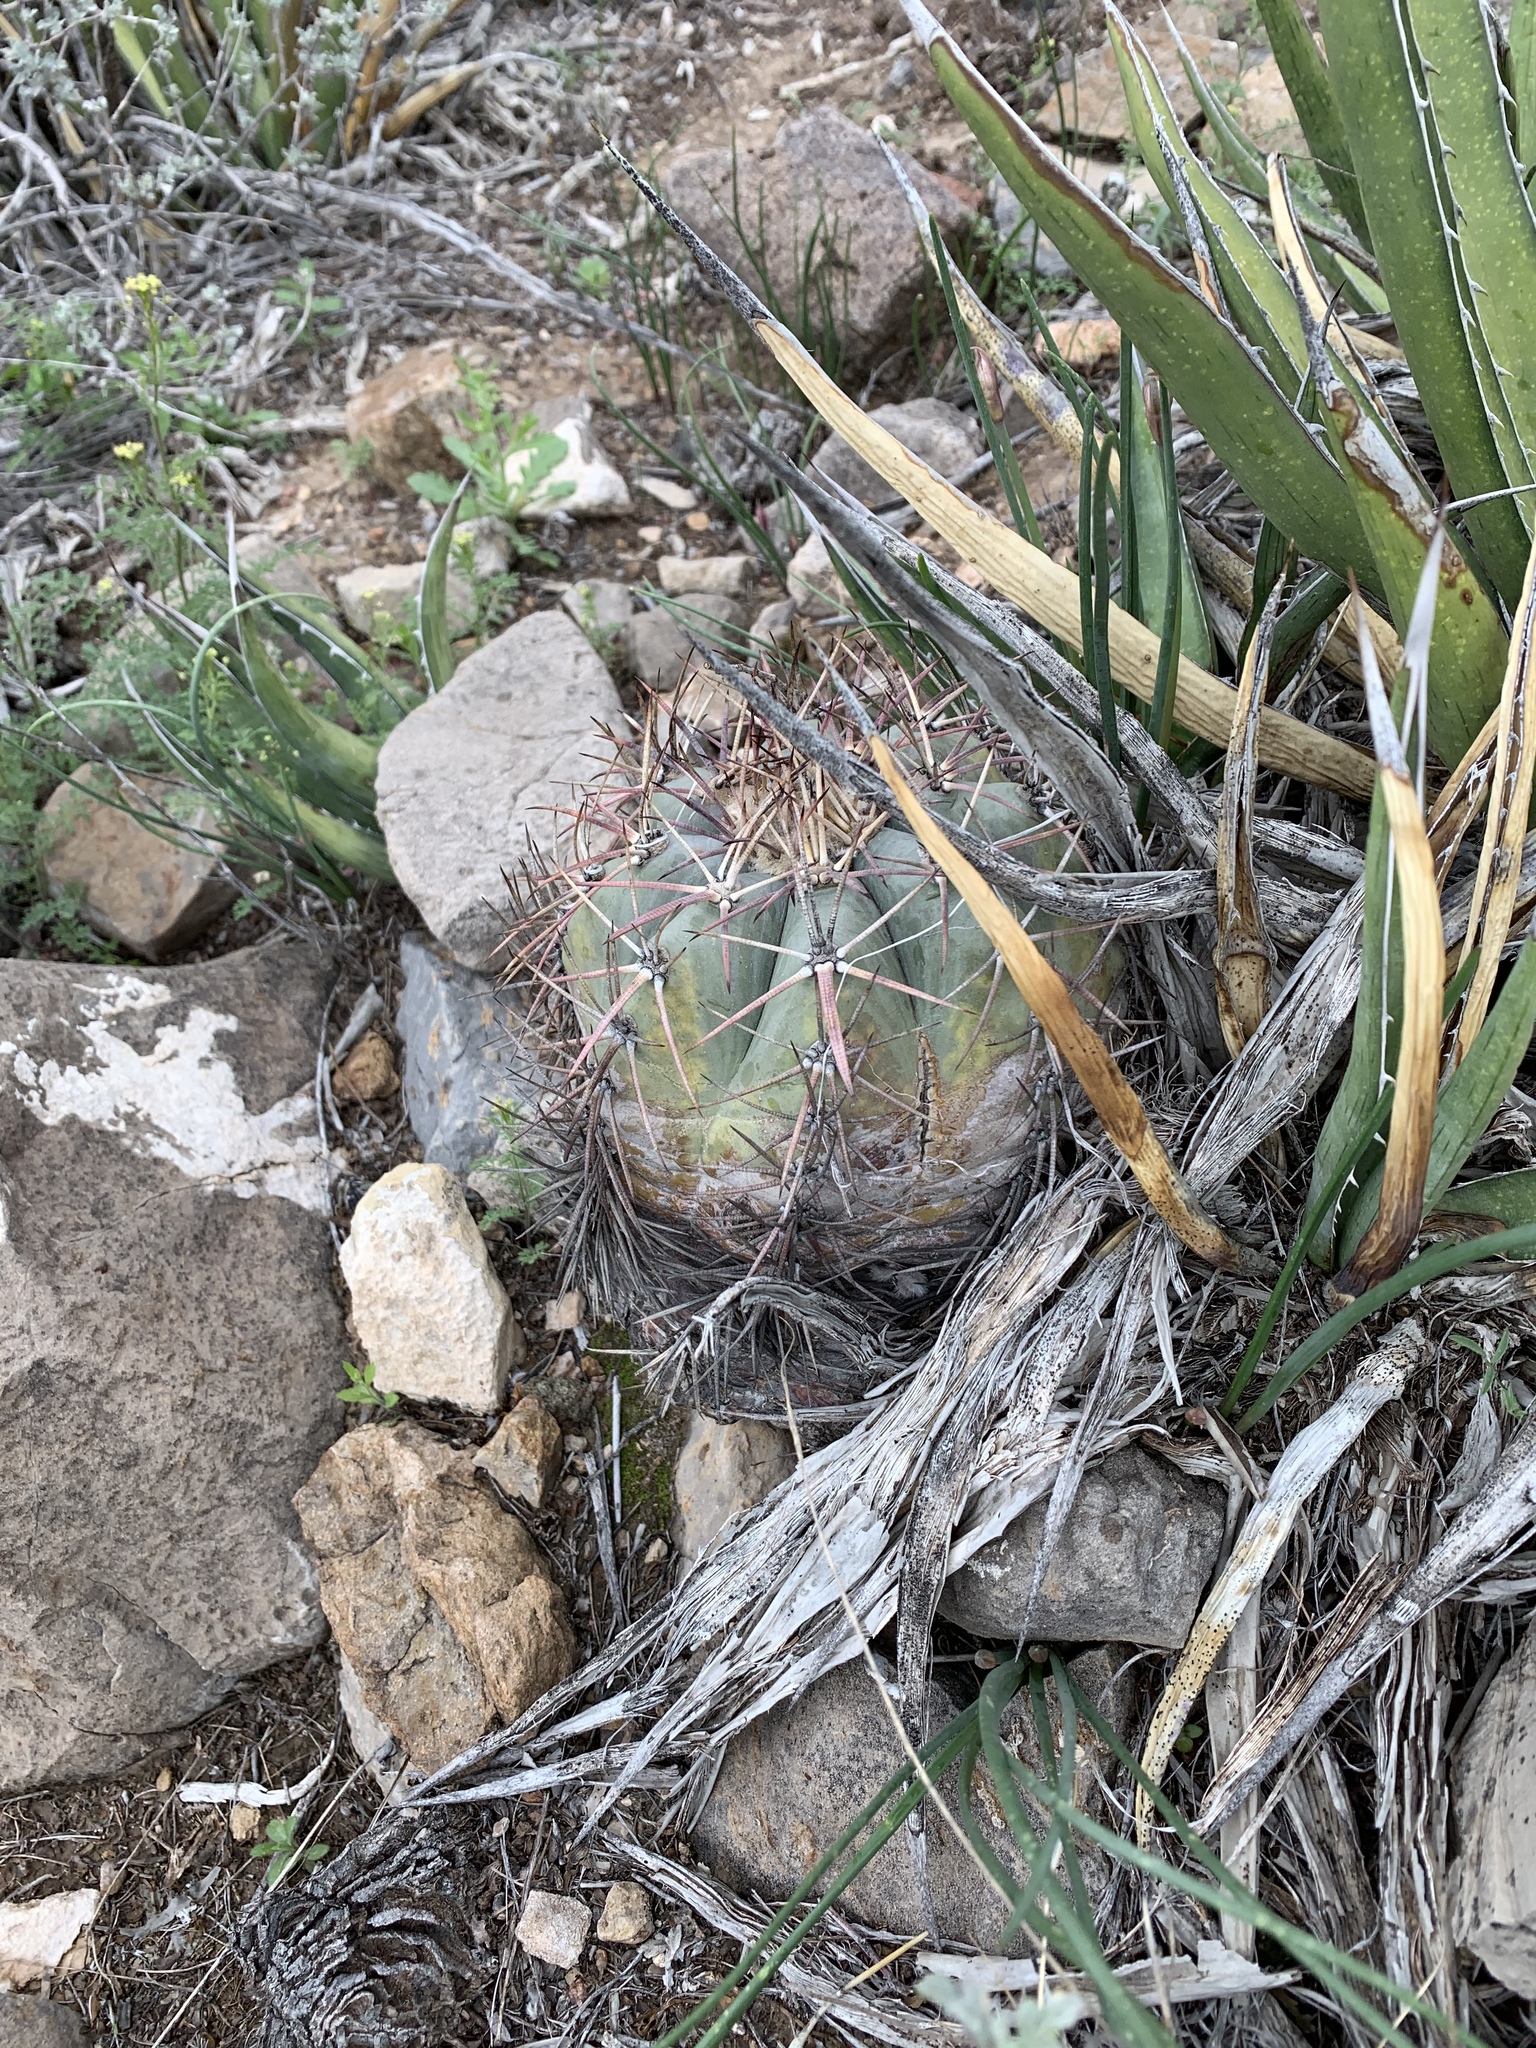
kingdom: Plantae
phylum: Tracheophyta
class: Magnoliopsida
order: Caryophyllales
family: Cactaceae
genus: Echinocactus
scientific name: Echinocactus horizonthalonius
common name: Devilshead
